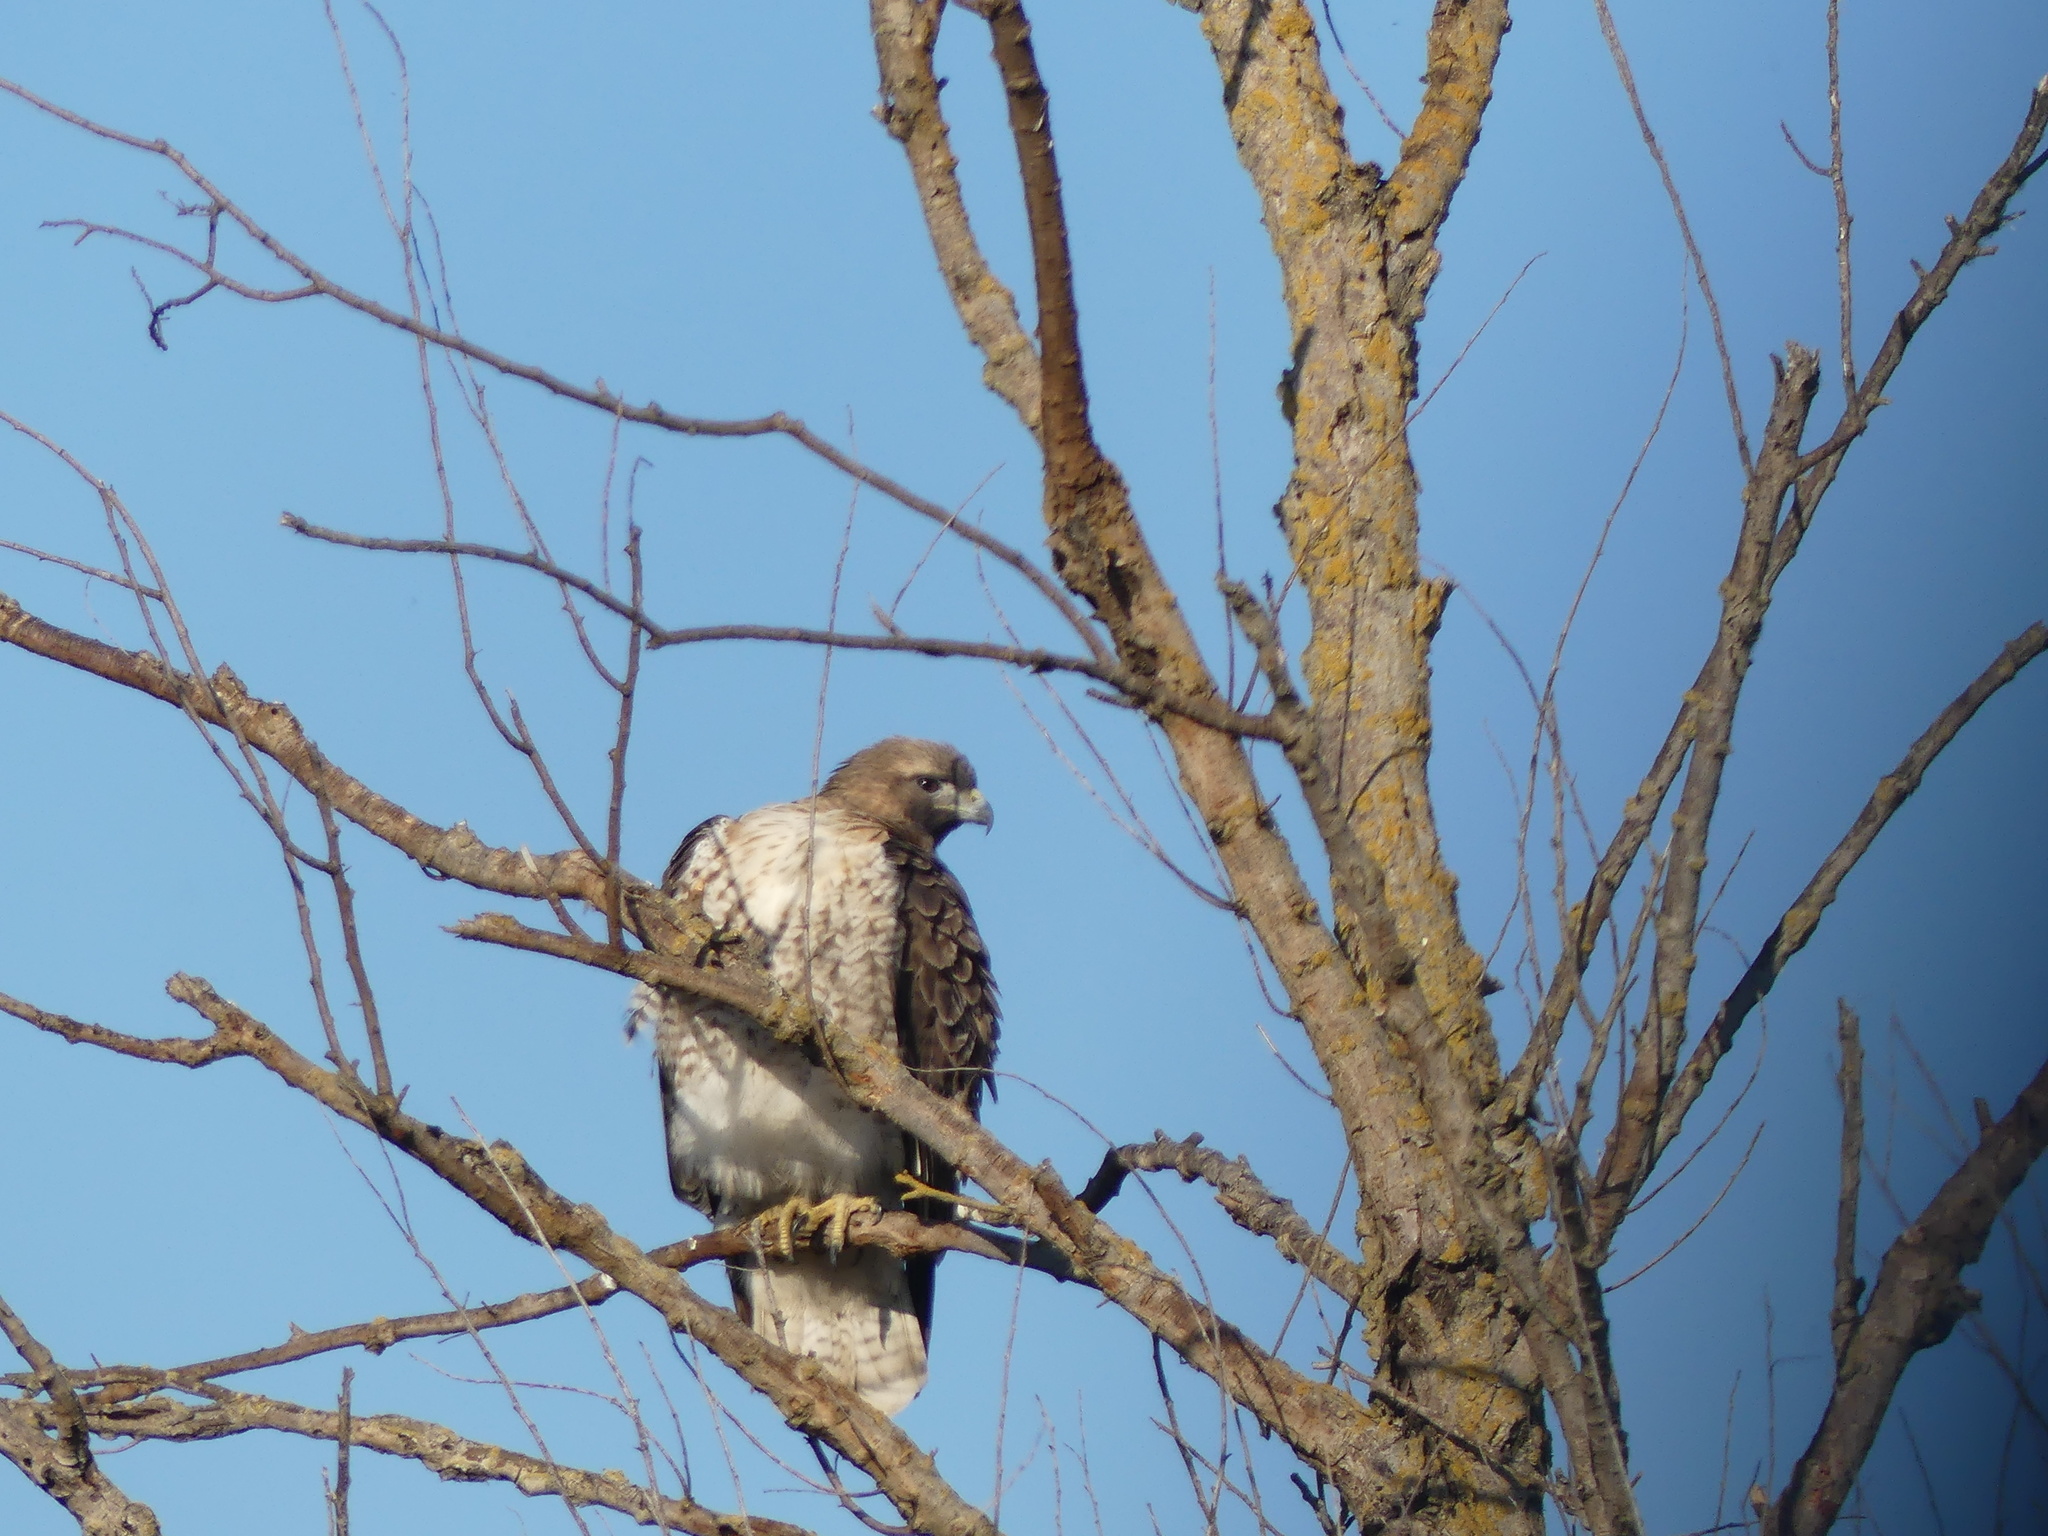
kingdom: Animalia
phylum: Chordata
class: Aves
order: Accipitriformes
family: Accipitridae
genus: Buteo
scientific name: Buteo jamaicensis
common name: Red-tailed hawk
